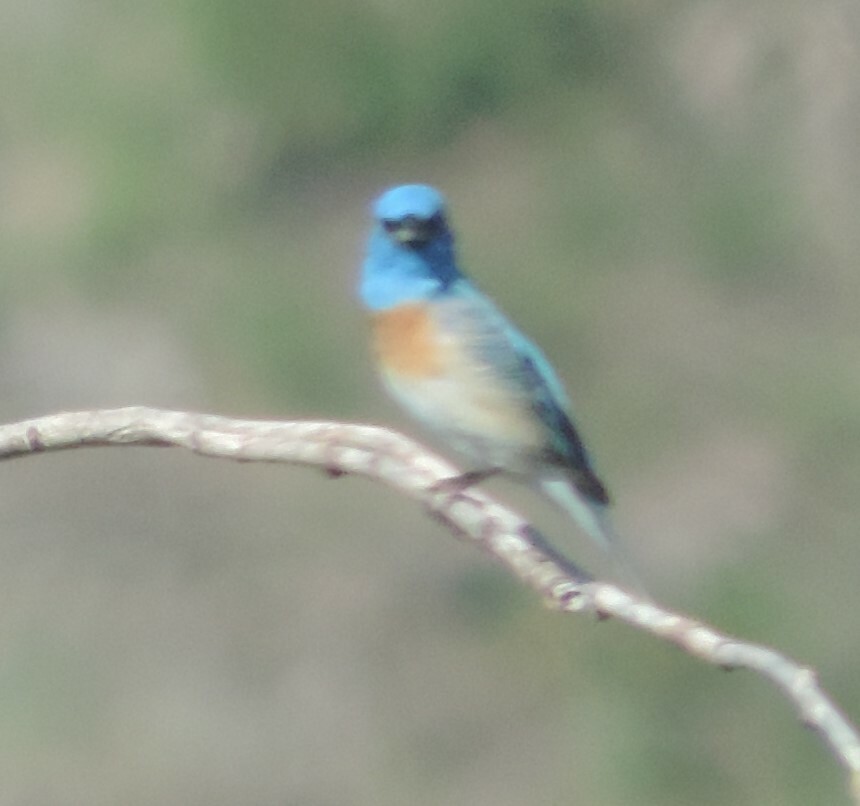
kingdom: Animalia
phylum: Chordata
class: Aves
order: Passeriformes
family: Cardinalidae
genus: Passerina
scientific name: Passerina amoena
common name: Lazuli bunting
